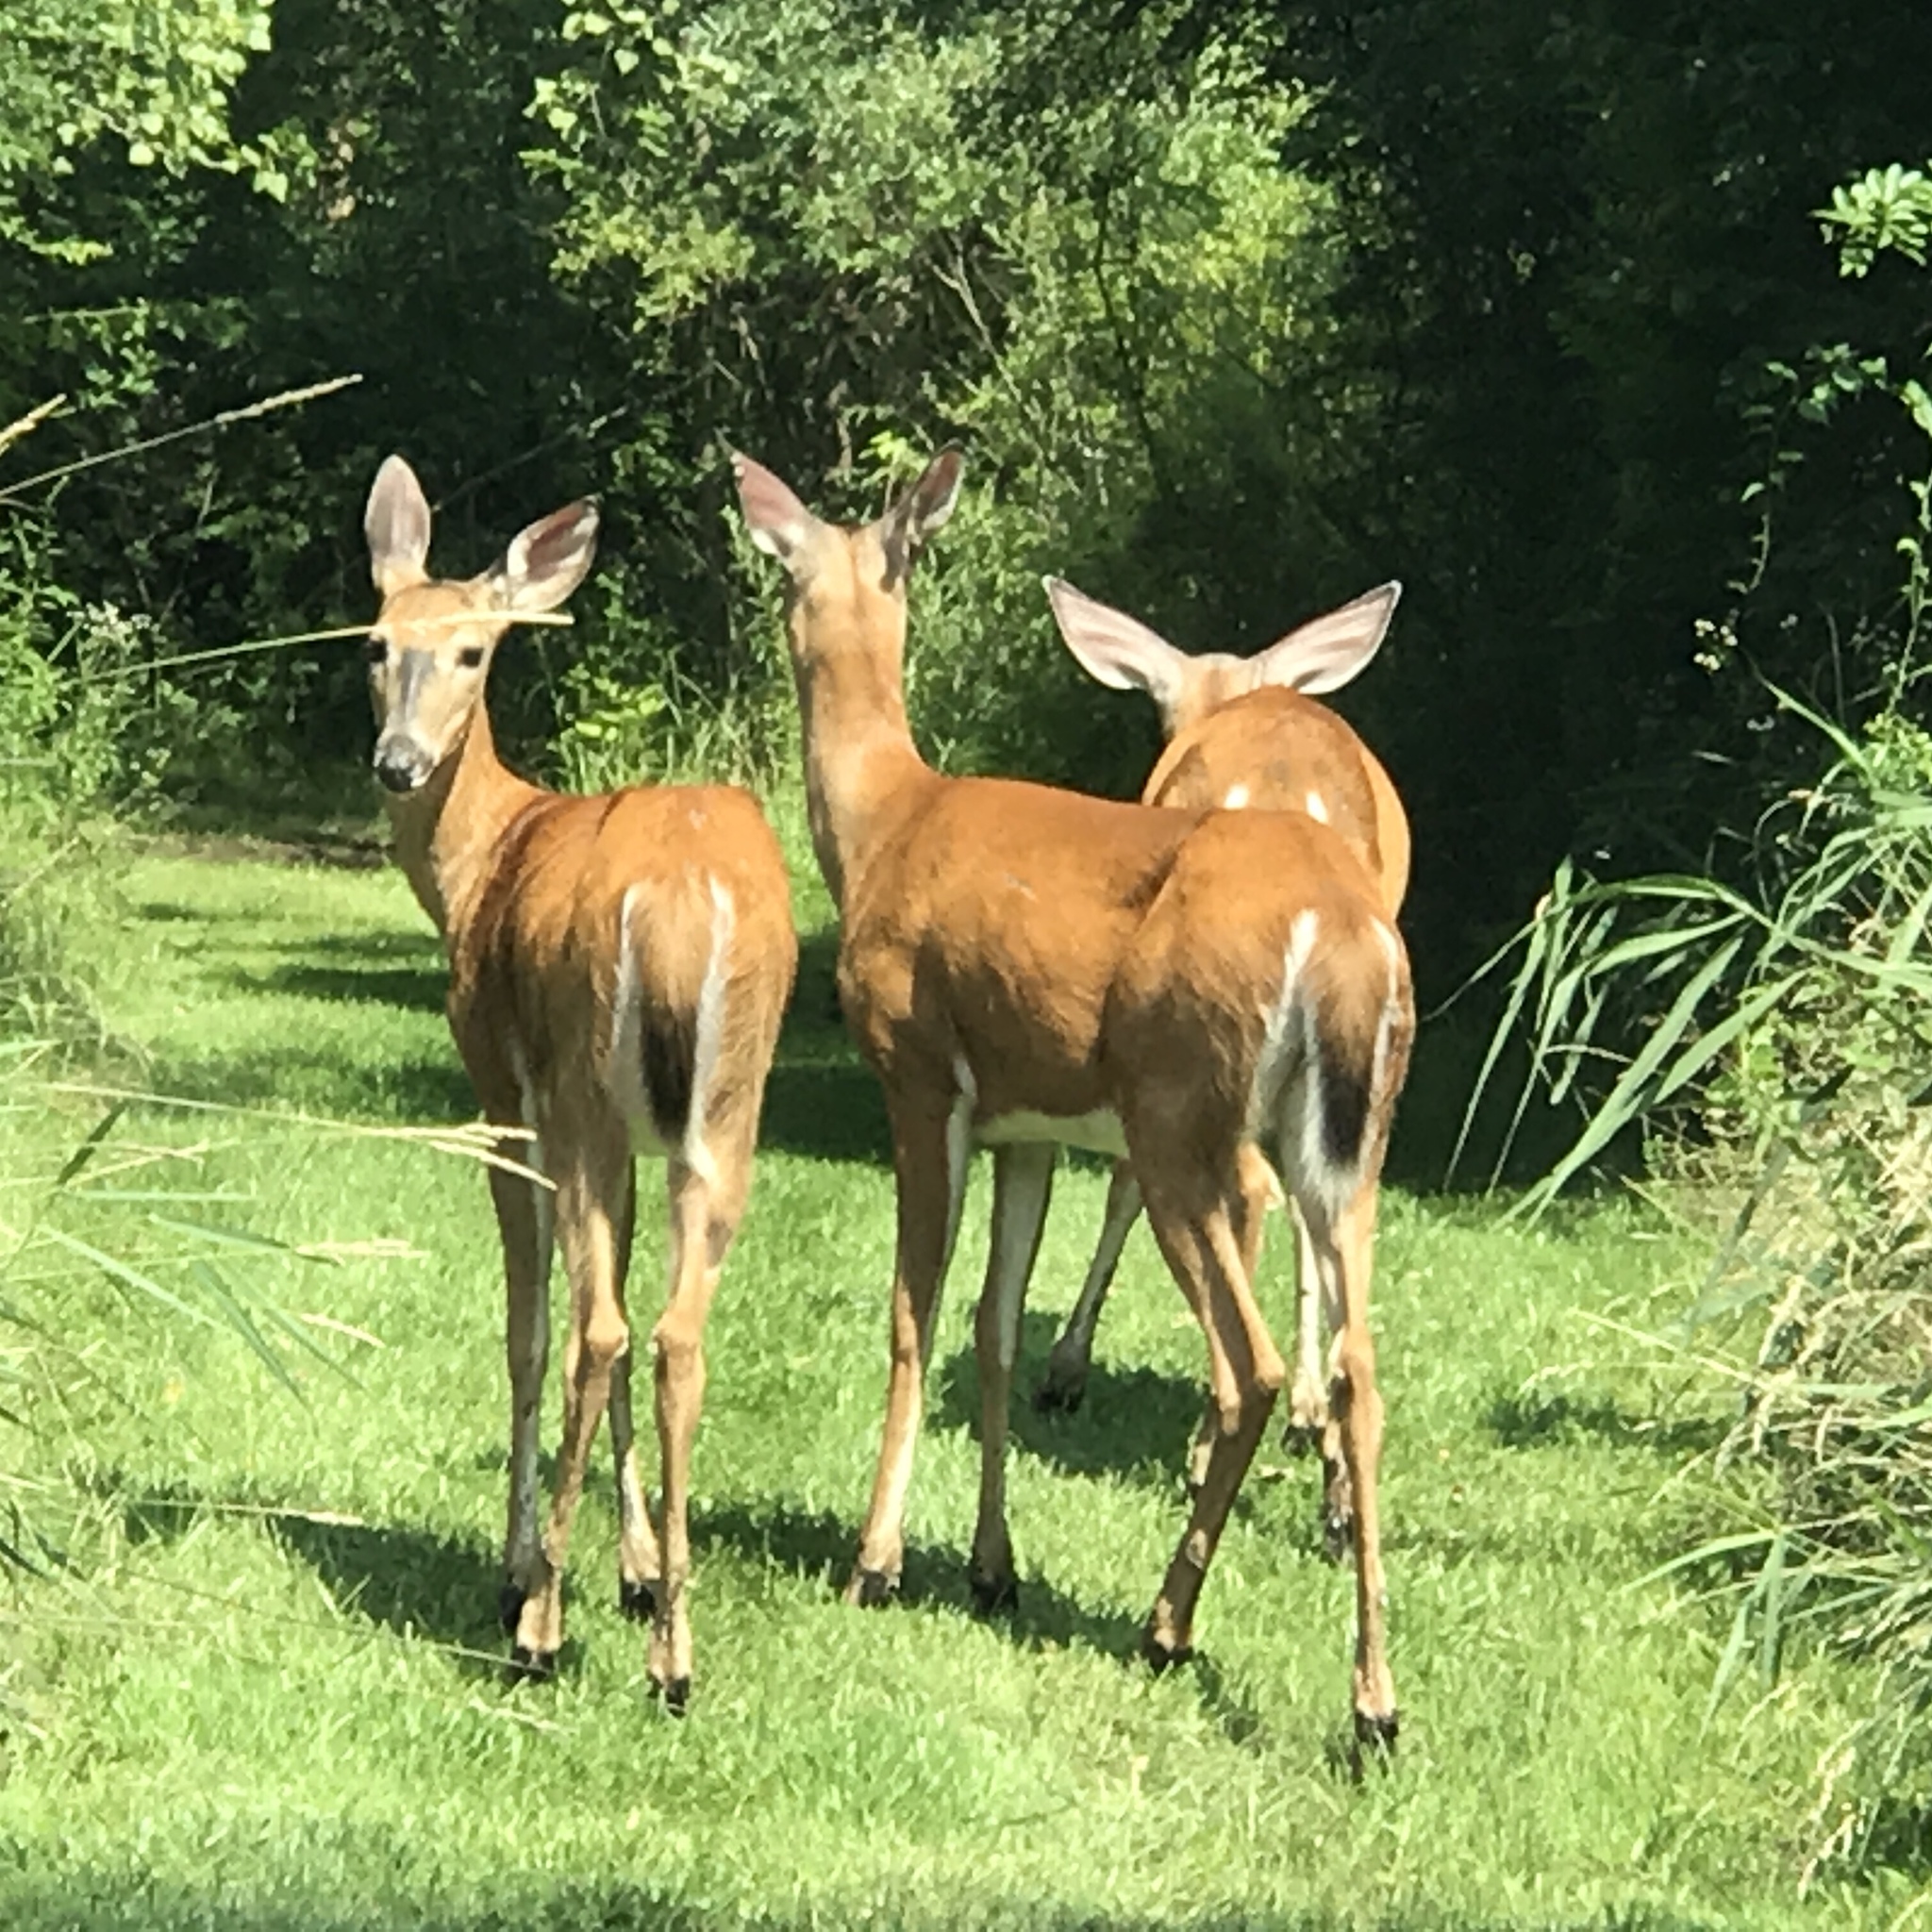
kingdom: Animalia
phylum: Chordata
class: Mammalia
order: Artiodactyla
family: Cervidae
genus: Odocoileus
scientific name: Odocoileus virginianus
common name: White-tailed deer
